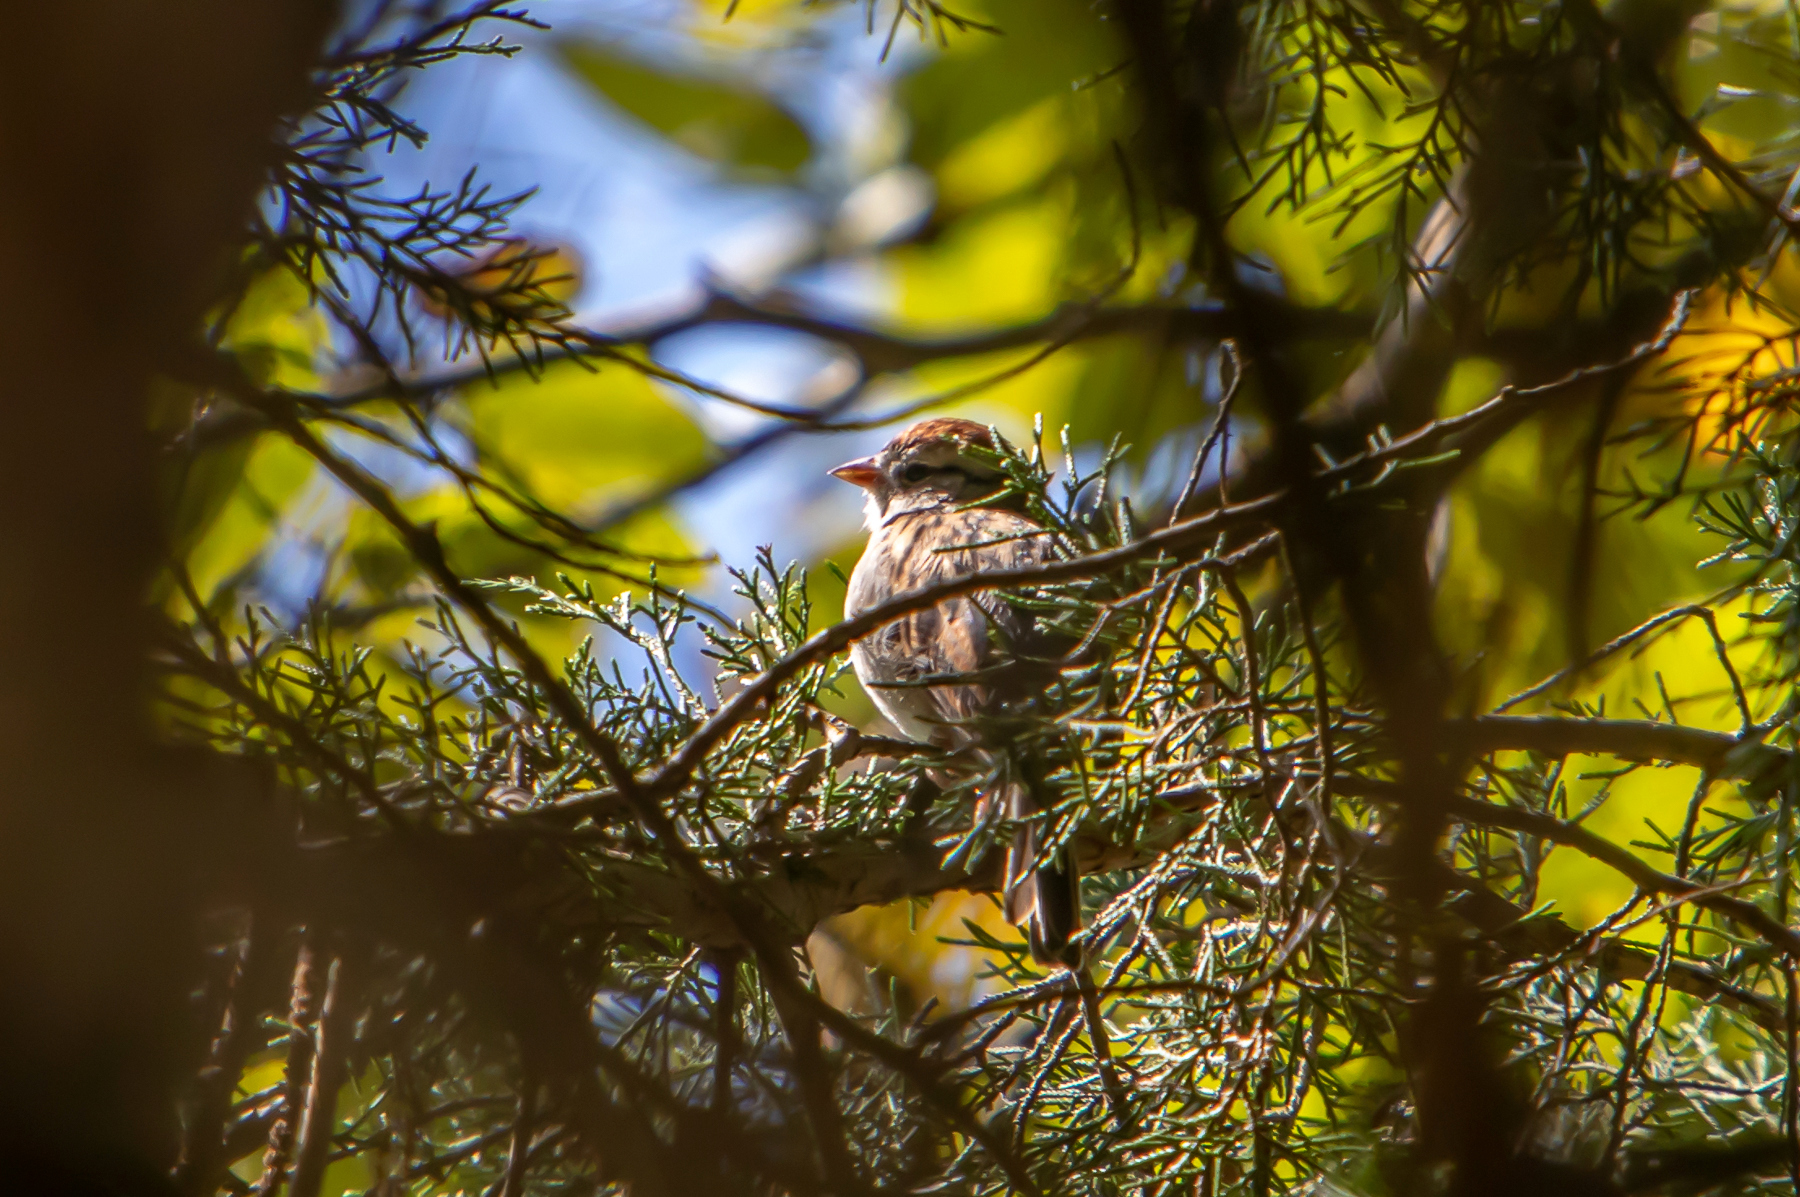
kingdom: Animalia
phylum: Chordata
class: Aves
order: Passeriformes
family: Passerellidae
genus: Spizella
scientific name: Spizella passerina
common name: Chipping sparrow
